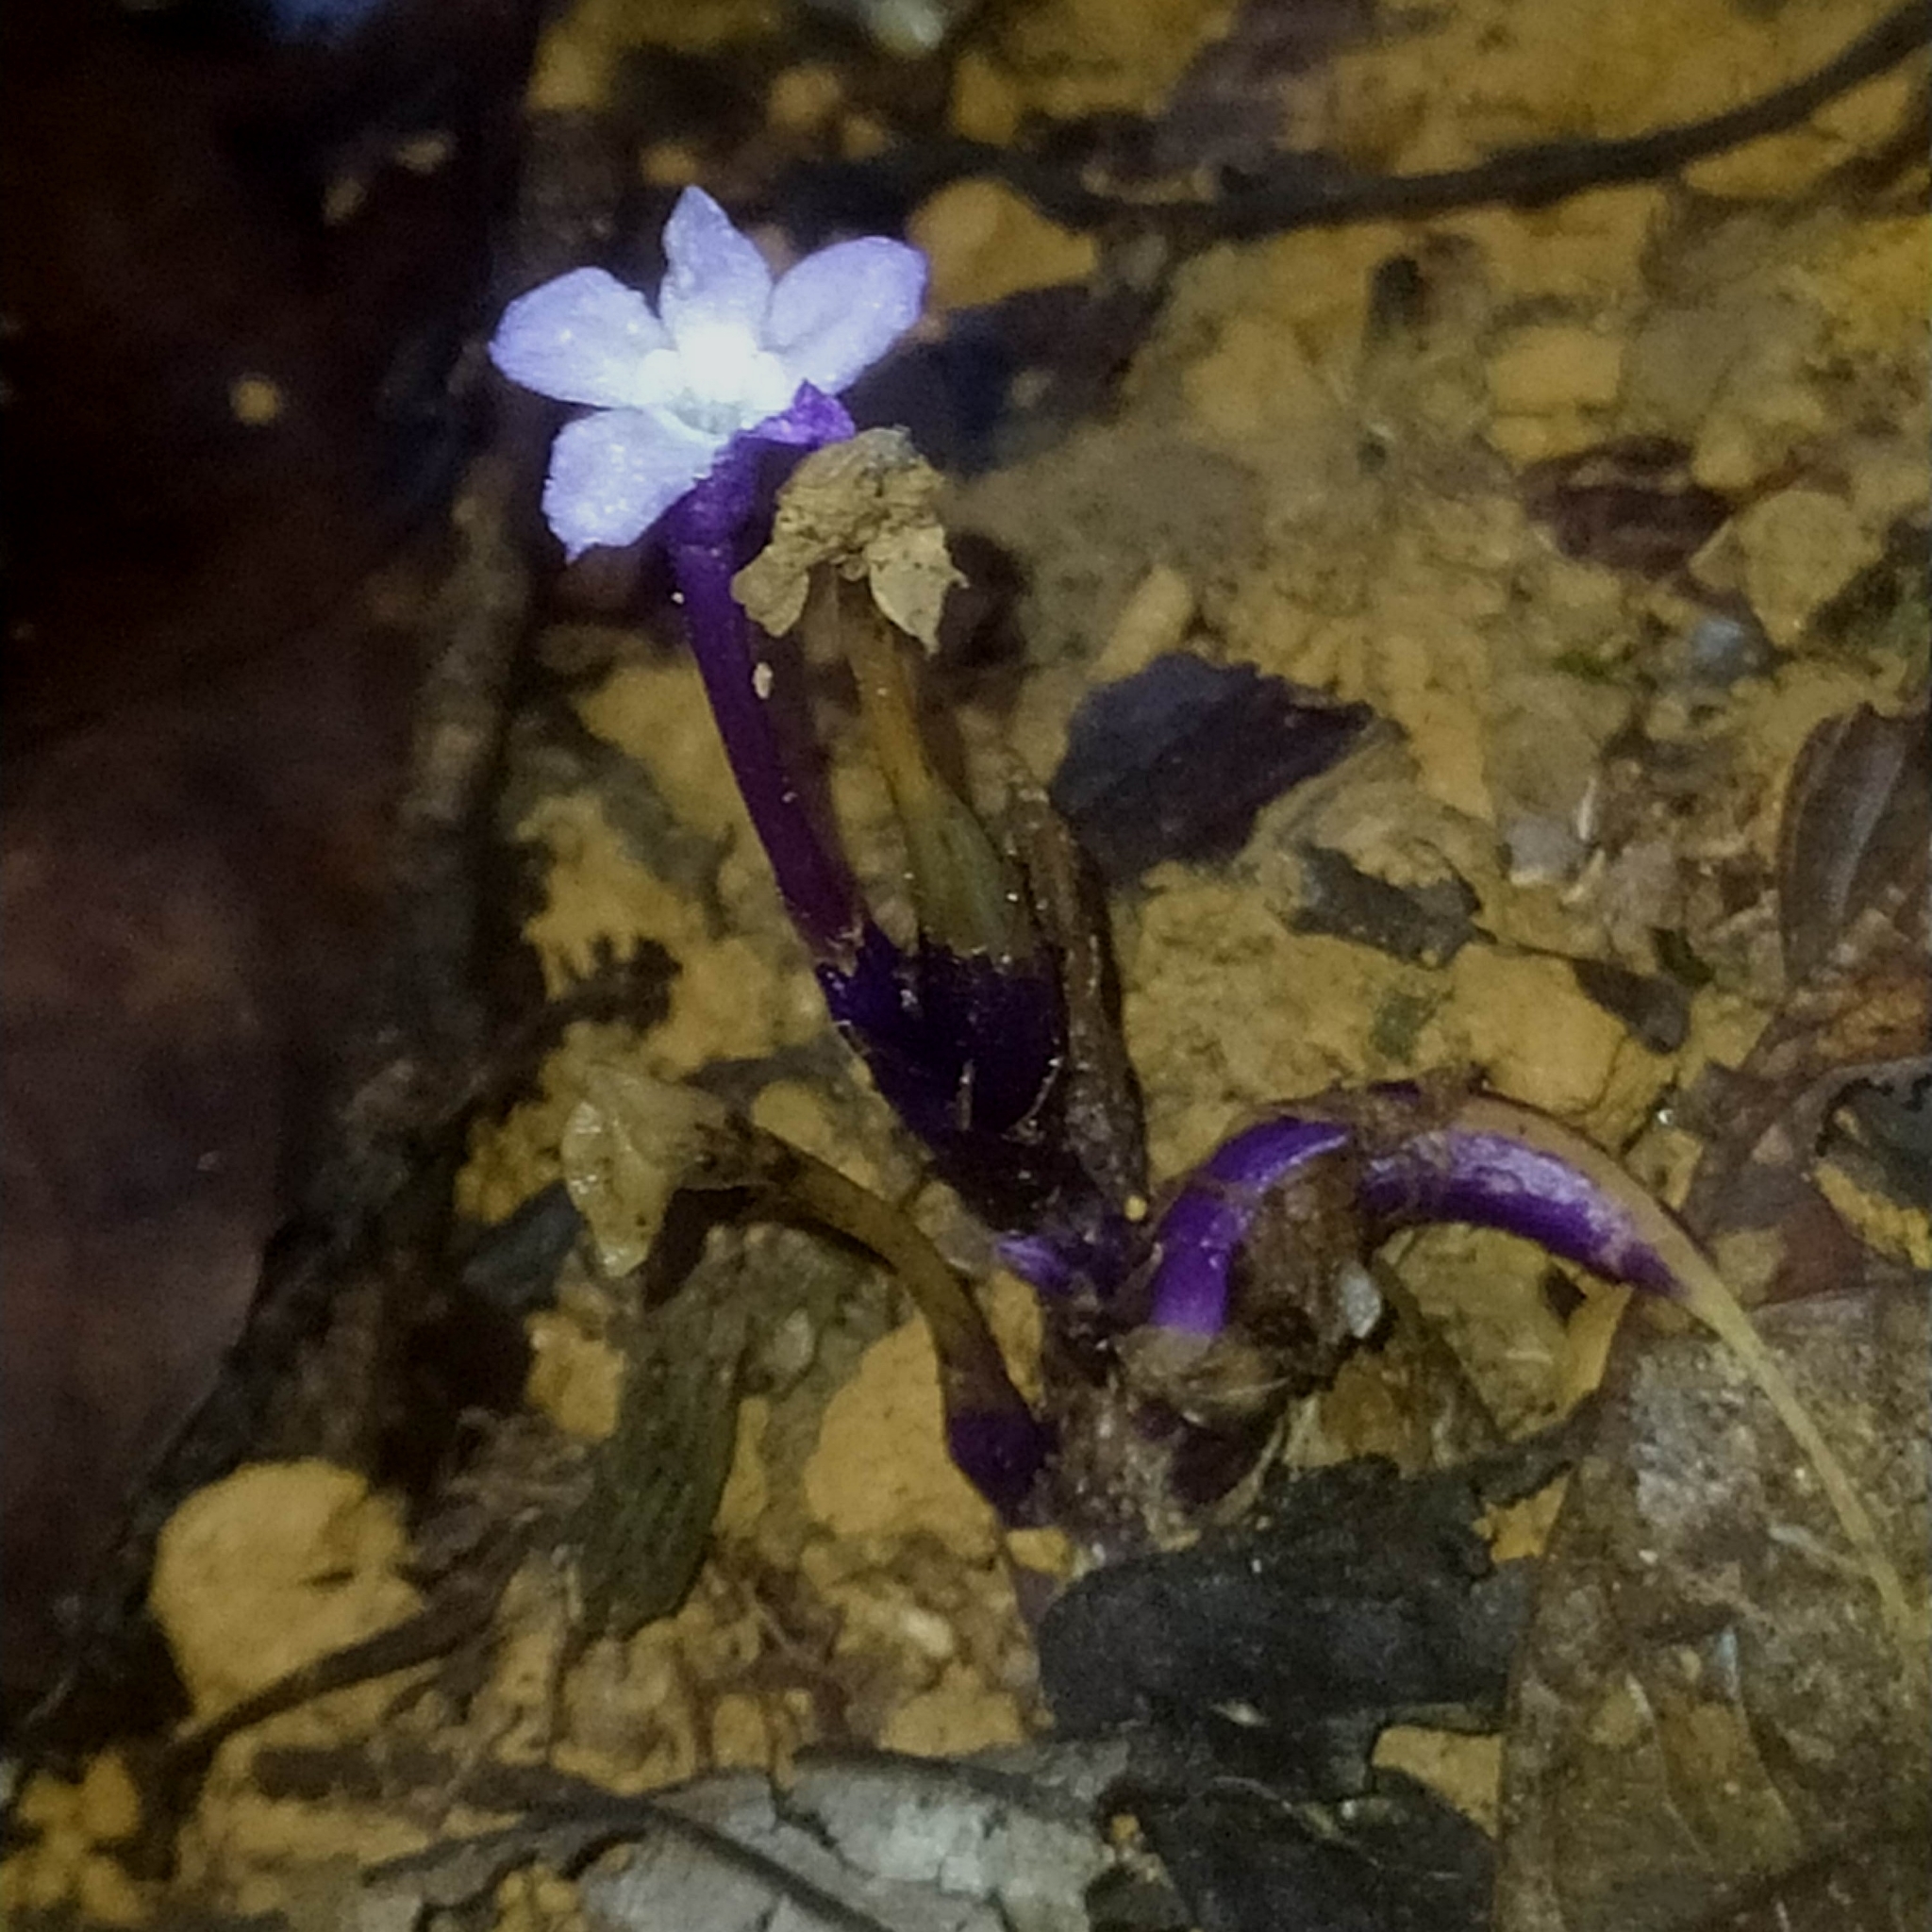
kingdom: Plantae
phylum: Tracheophyta
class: Magnoliopsida
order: Gentianales
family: Gentianaceae
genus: Voyria
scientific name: Voyria caerulea
